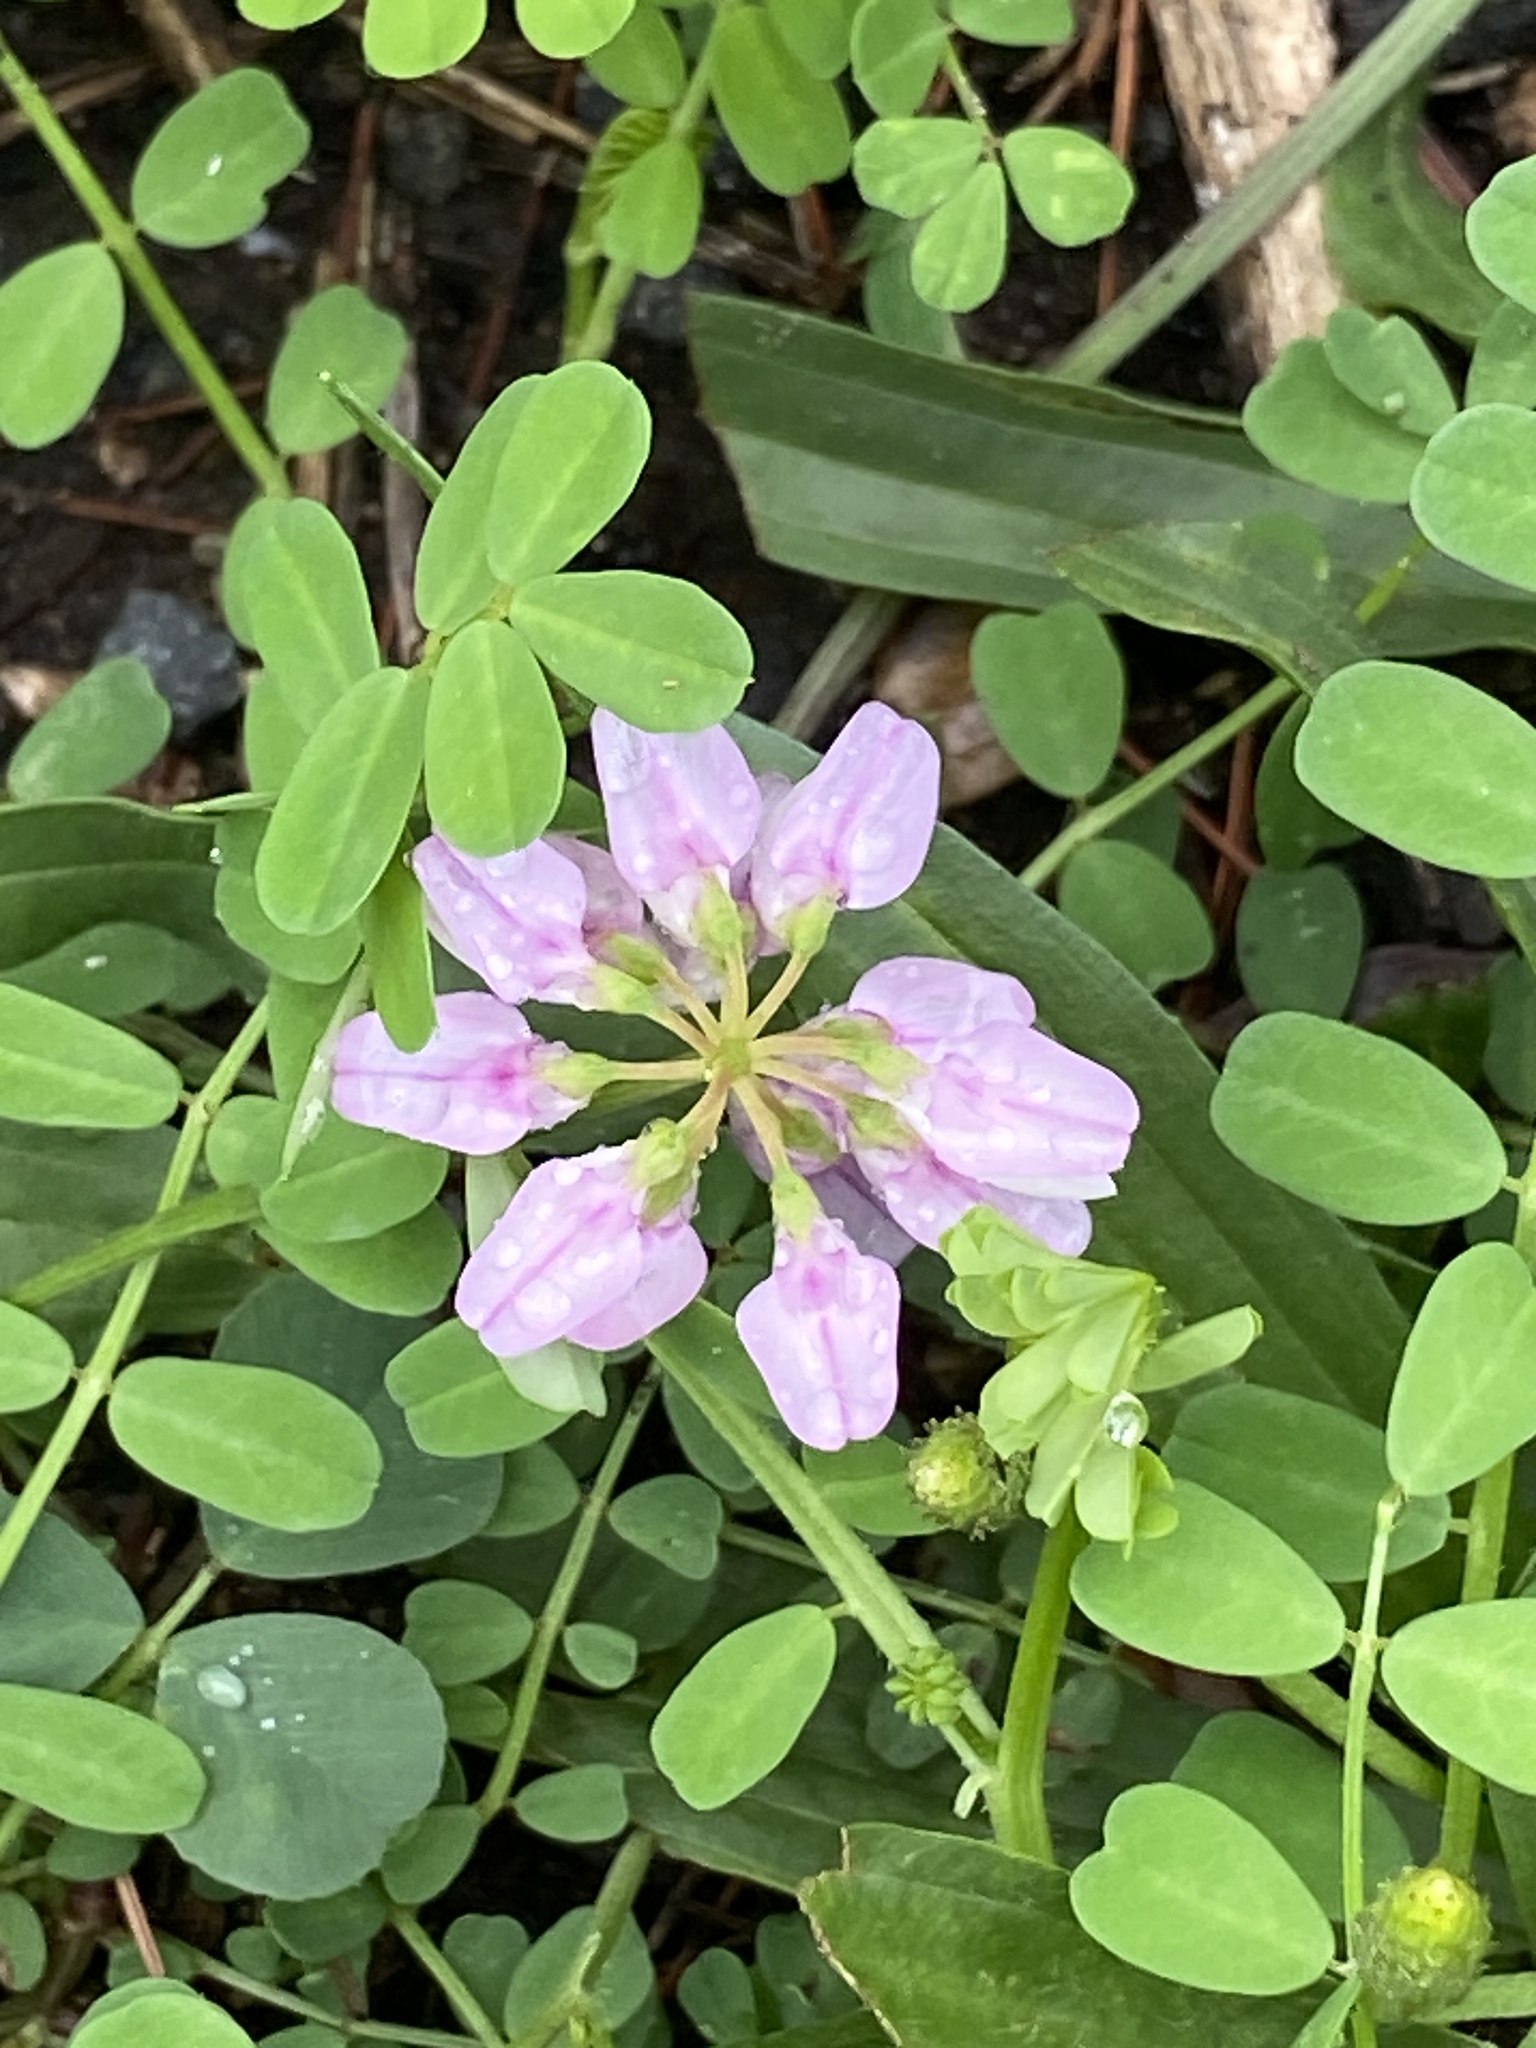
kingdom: Plantae
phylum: Tracheophyta
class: Magnoliopsida
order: Fabales
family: Fabaceae
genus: Coronilla
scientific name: Coronilla varia
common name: Crownvetch
